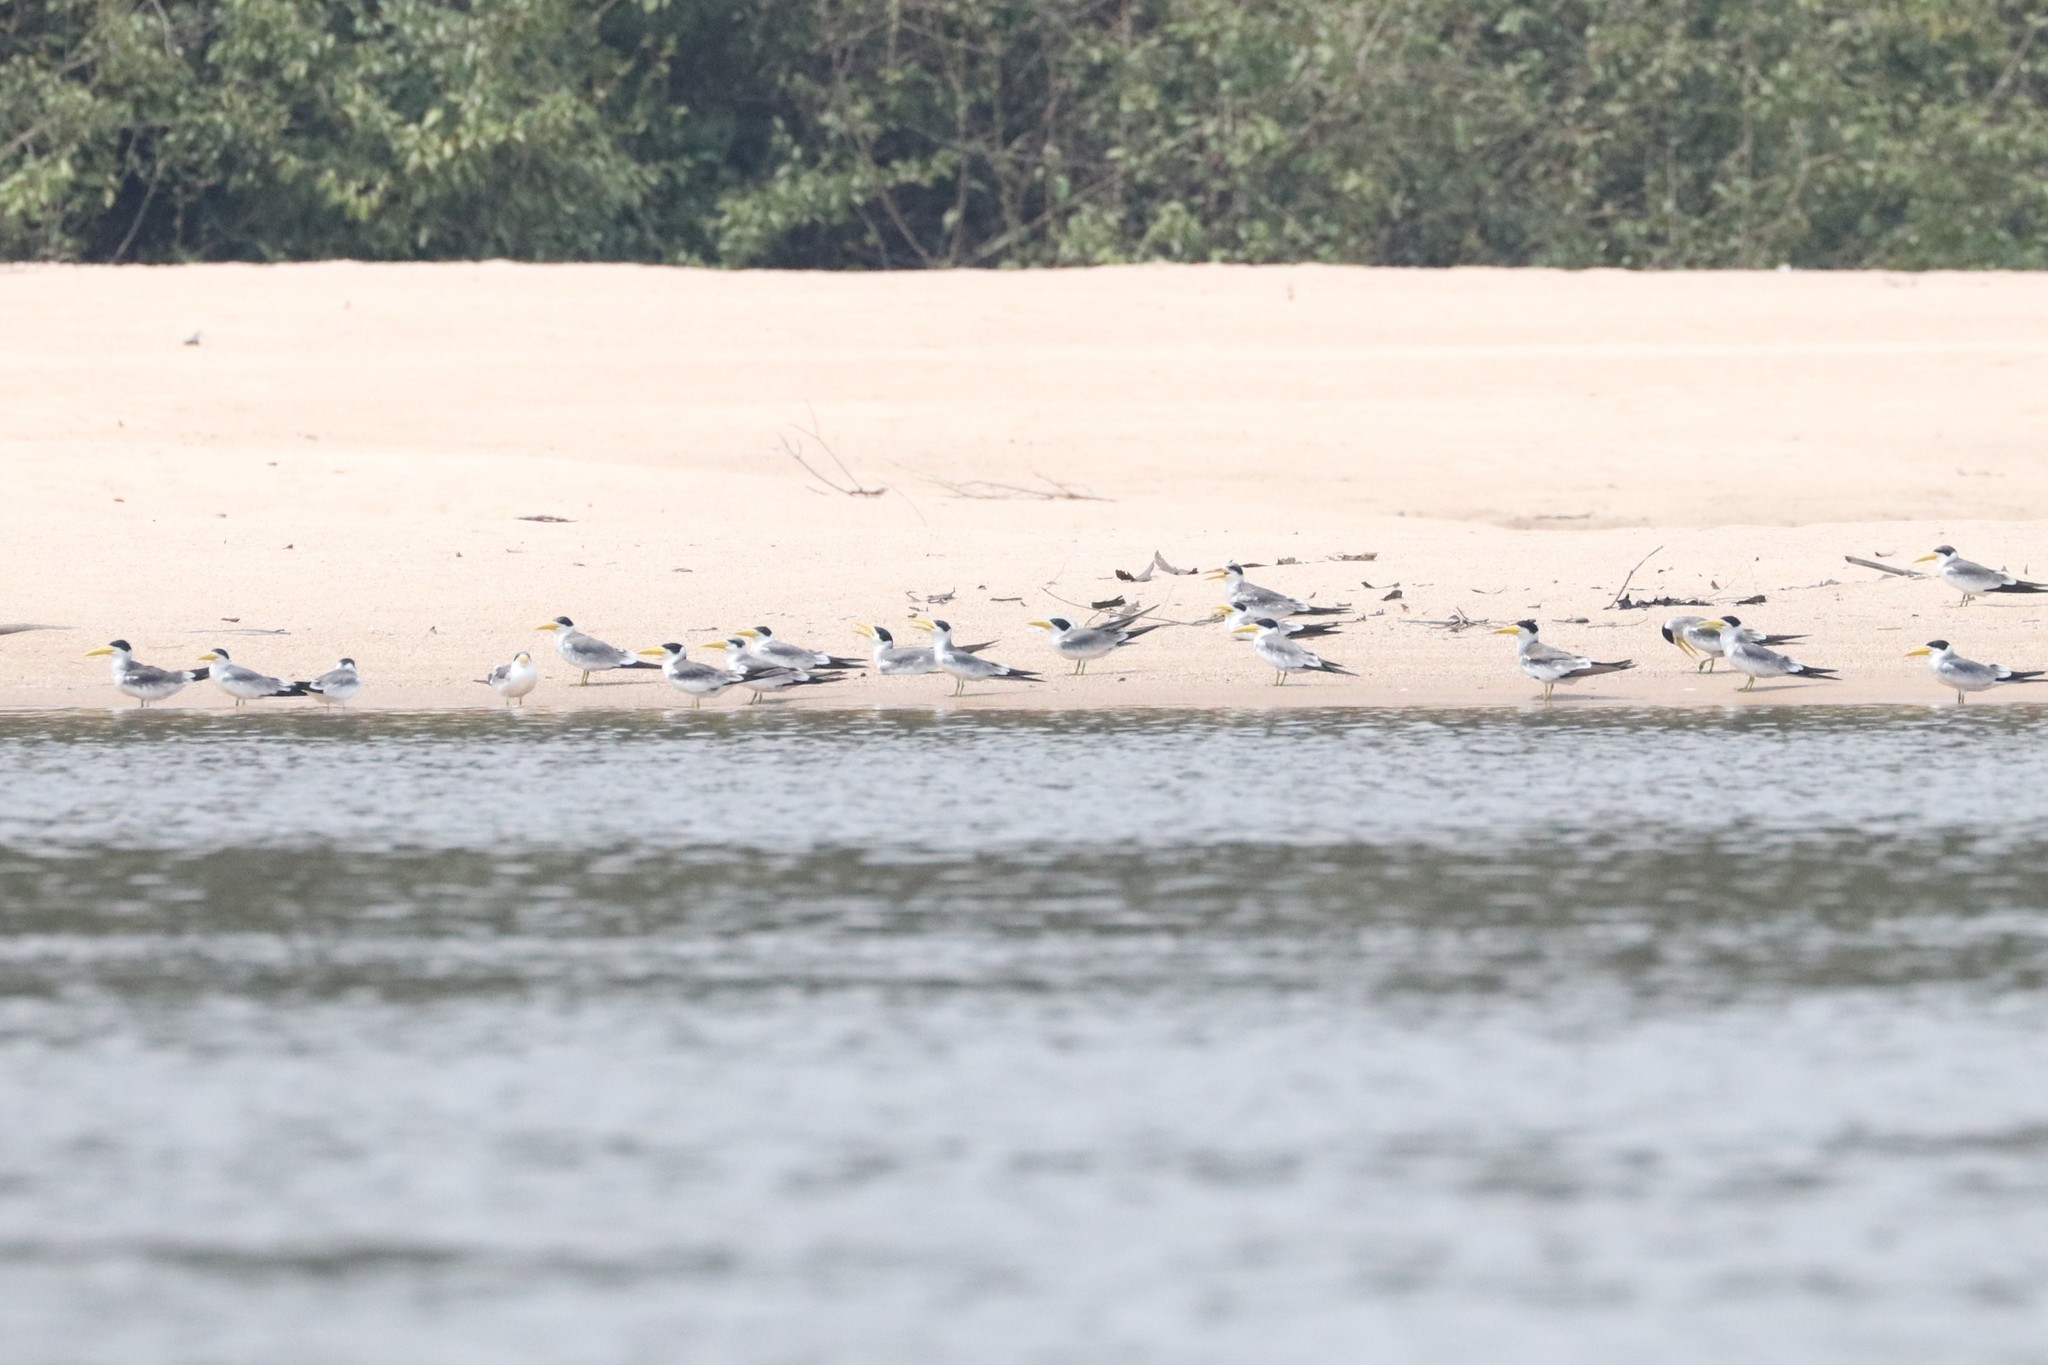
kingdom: Animalia
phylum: Chordata
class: Aves
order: Charadriiformes
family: Laridae
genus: Phaetusa
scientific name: Phaetusa simplex
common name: Large-billed tern
